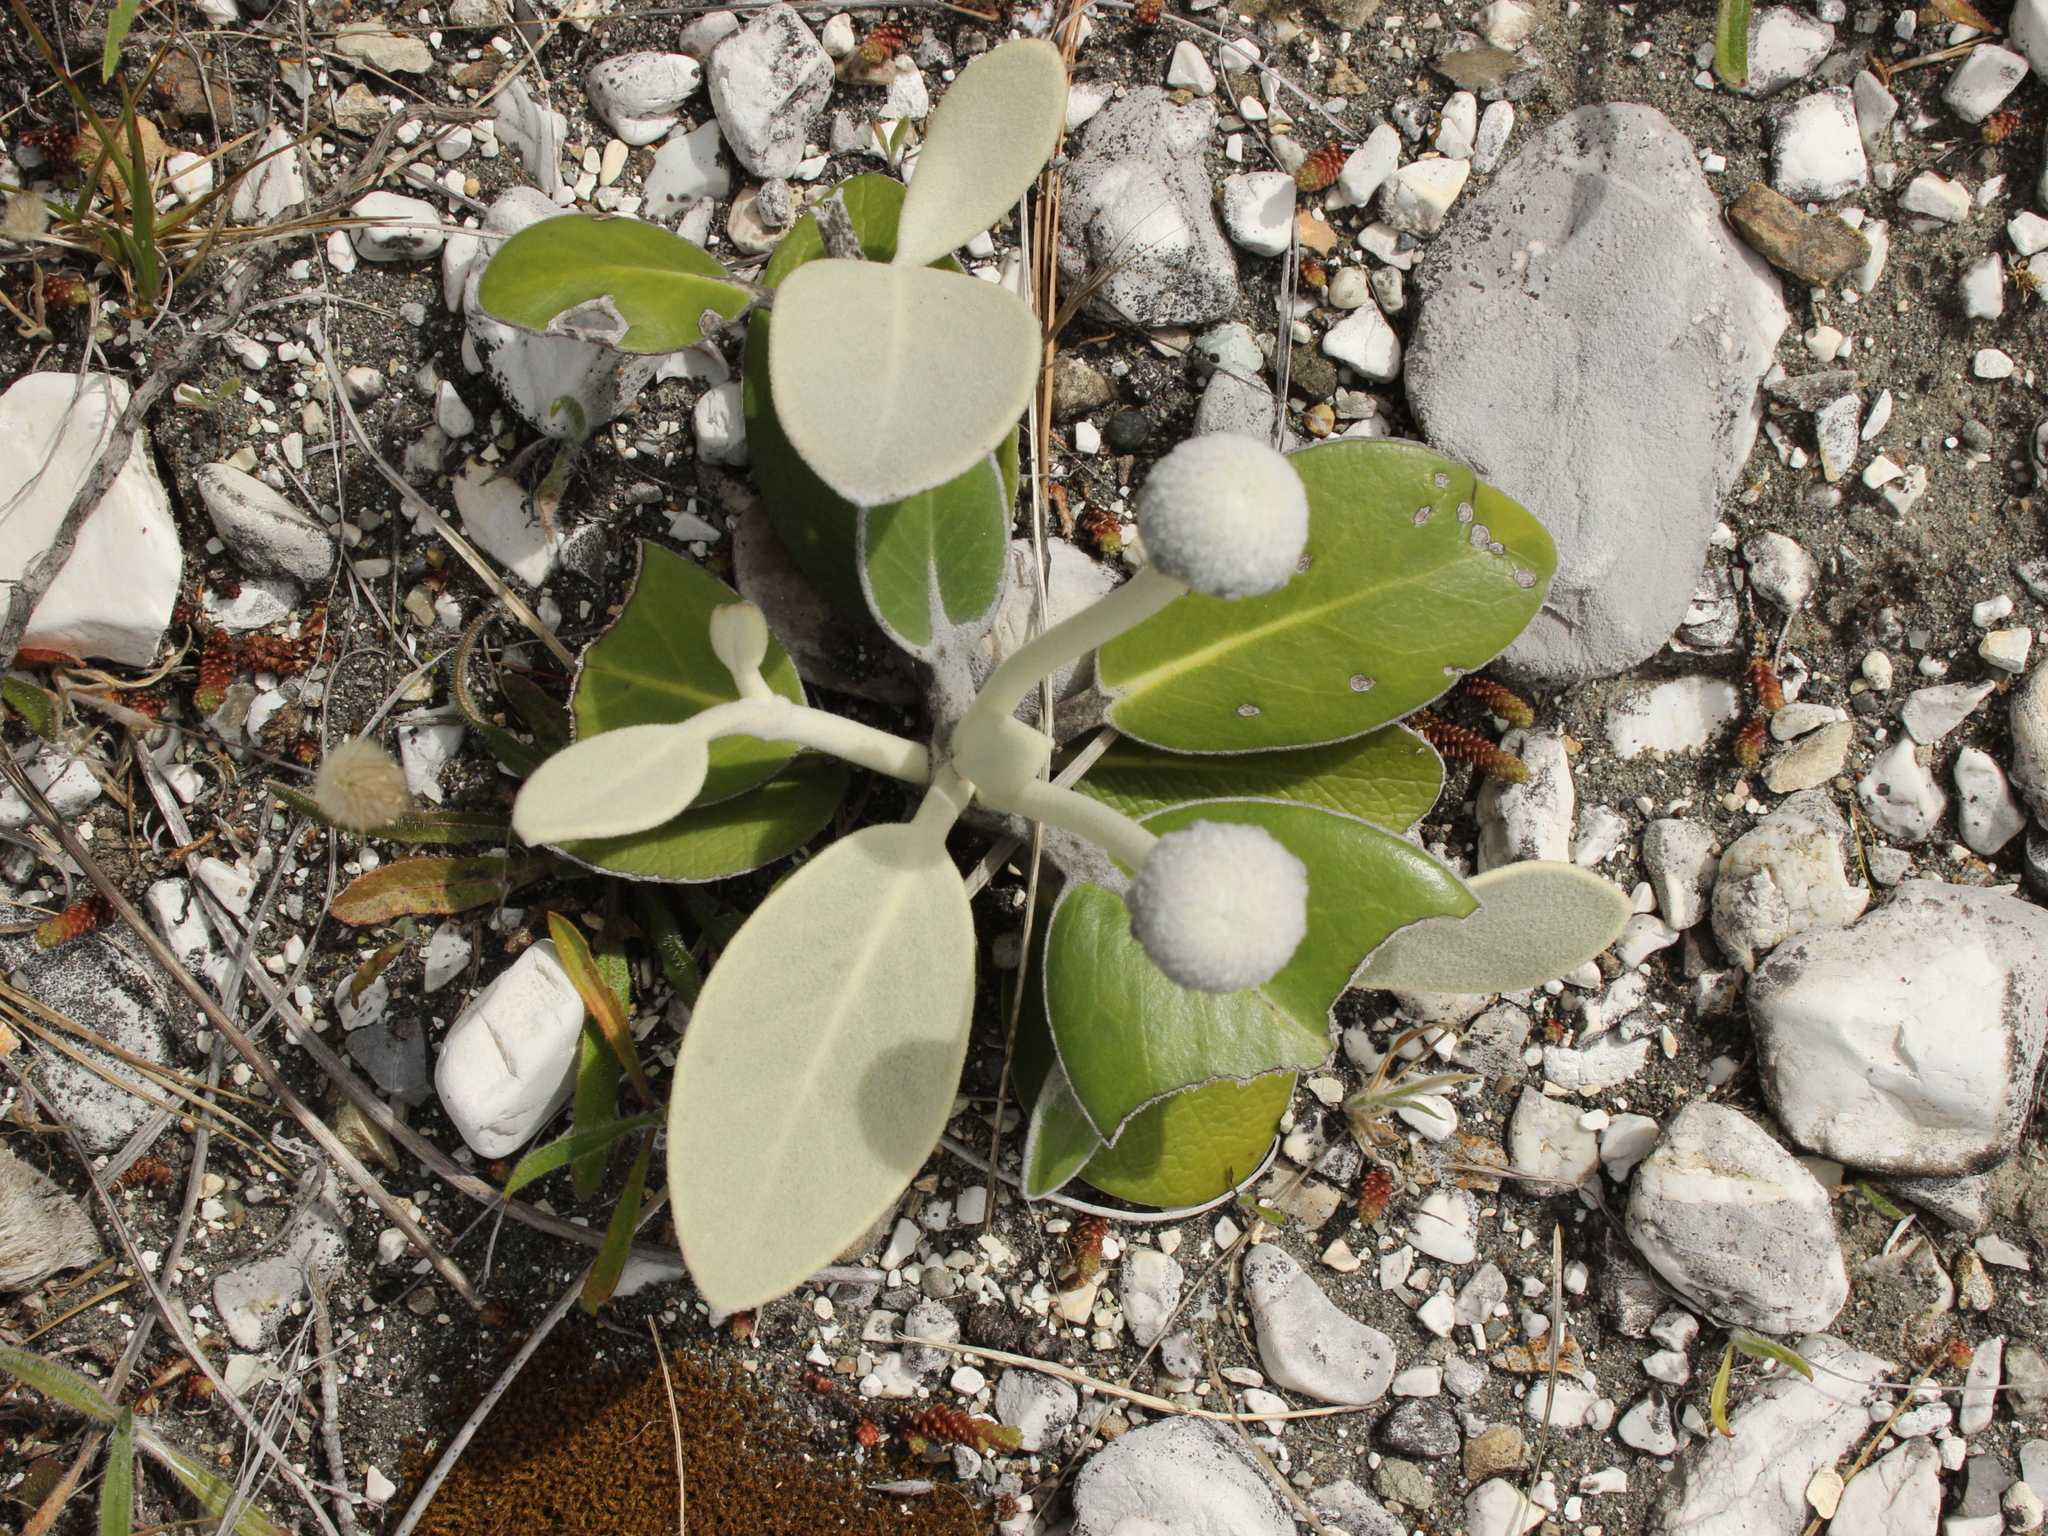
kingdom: Plantae
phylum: Tracheophyta
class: Magnoliopsida
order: Asterales
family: Asteraceae
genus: Pachystegia
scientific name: Pachystegia insignis
